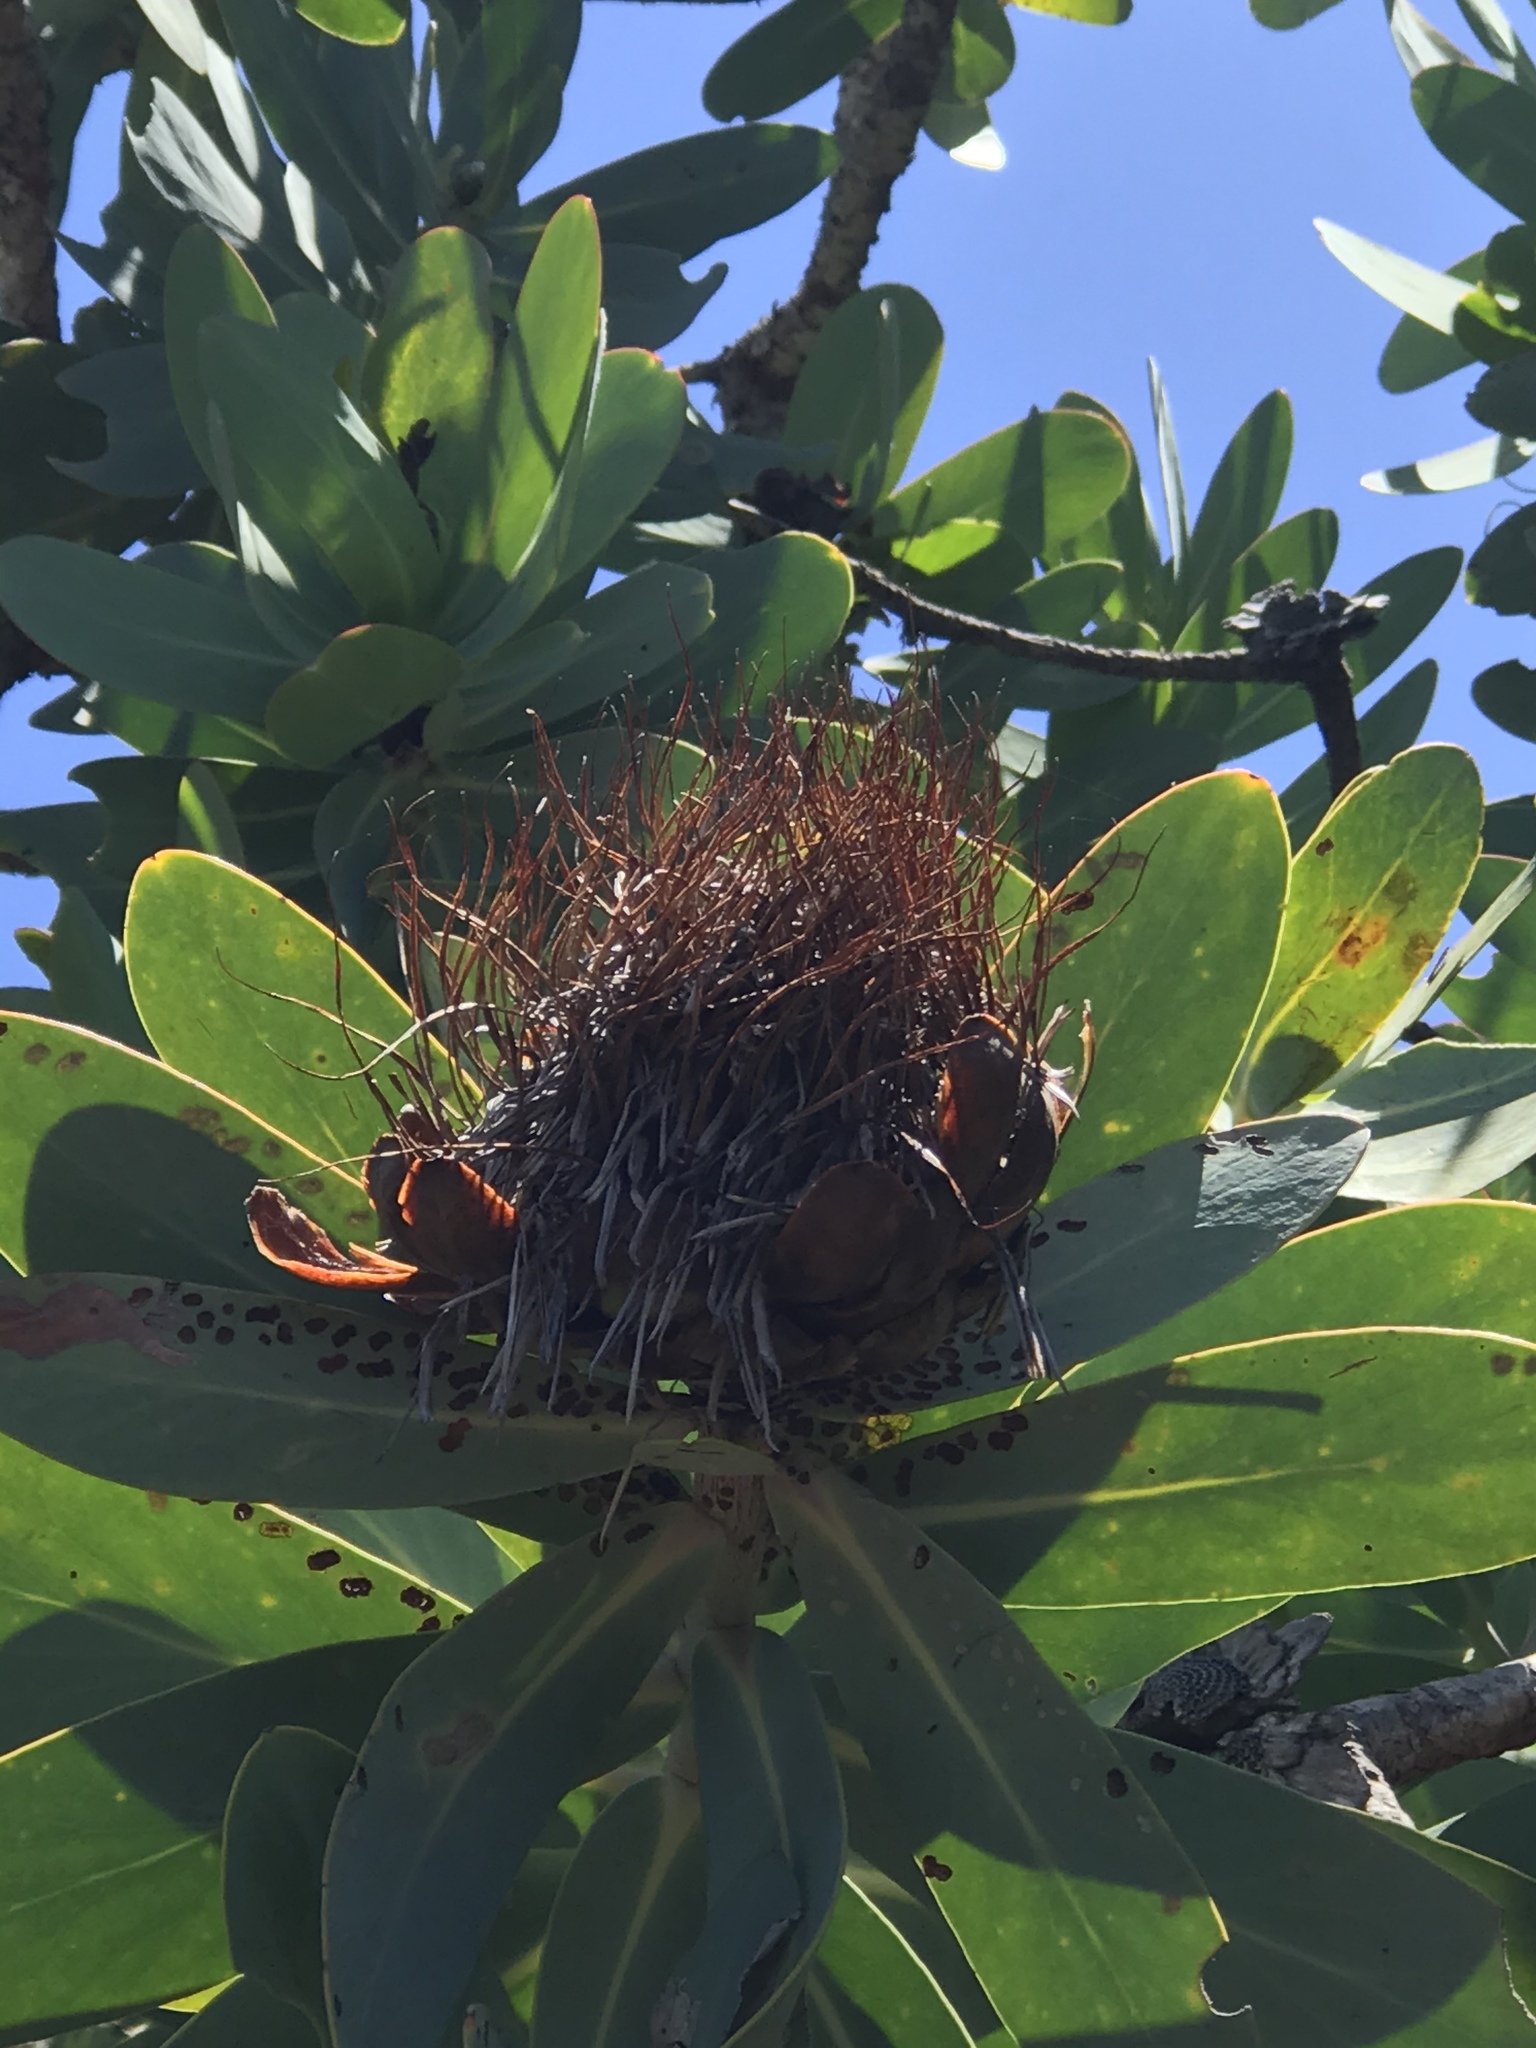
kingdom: Plantae
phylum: Tracheophyta
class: Magnoliopsida
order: Proteales
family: Proteaceae
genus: Protea
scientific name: Protea nitida
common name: Tree protea
